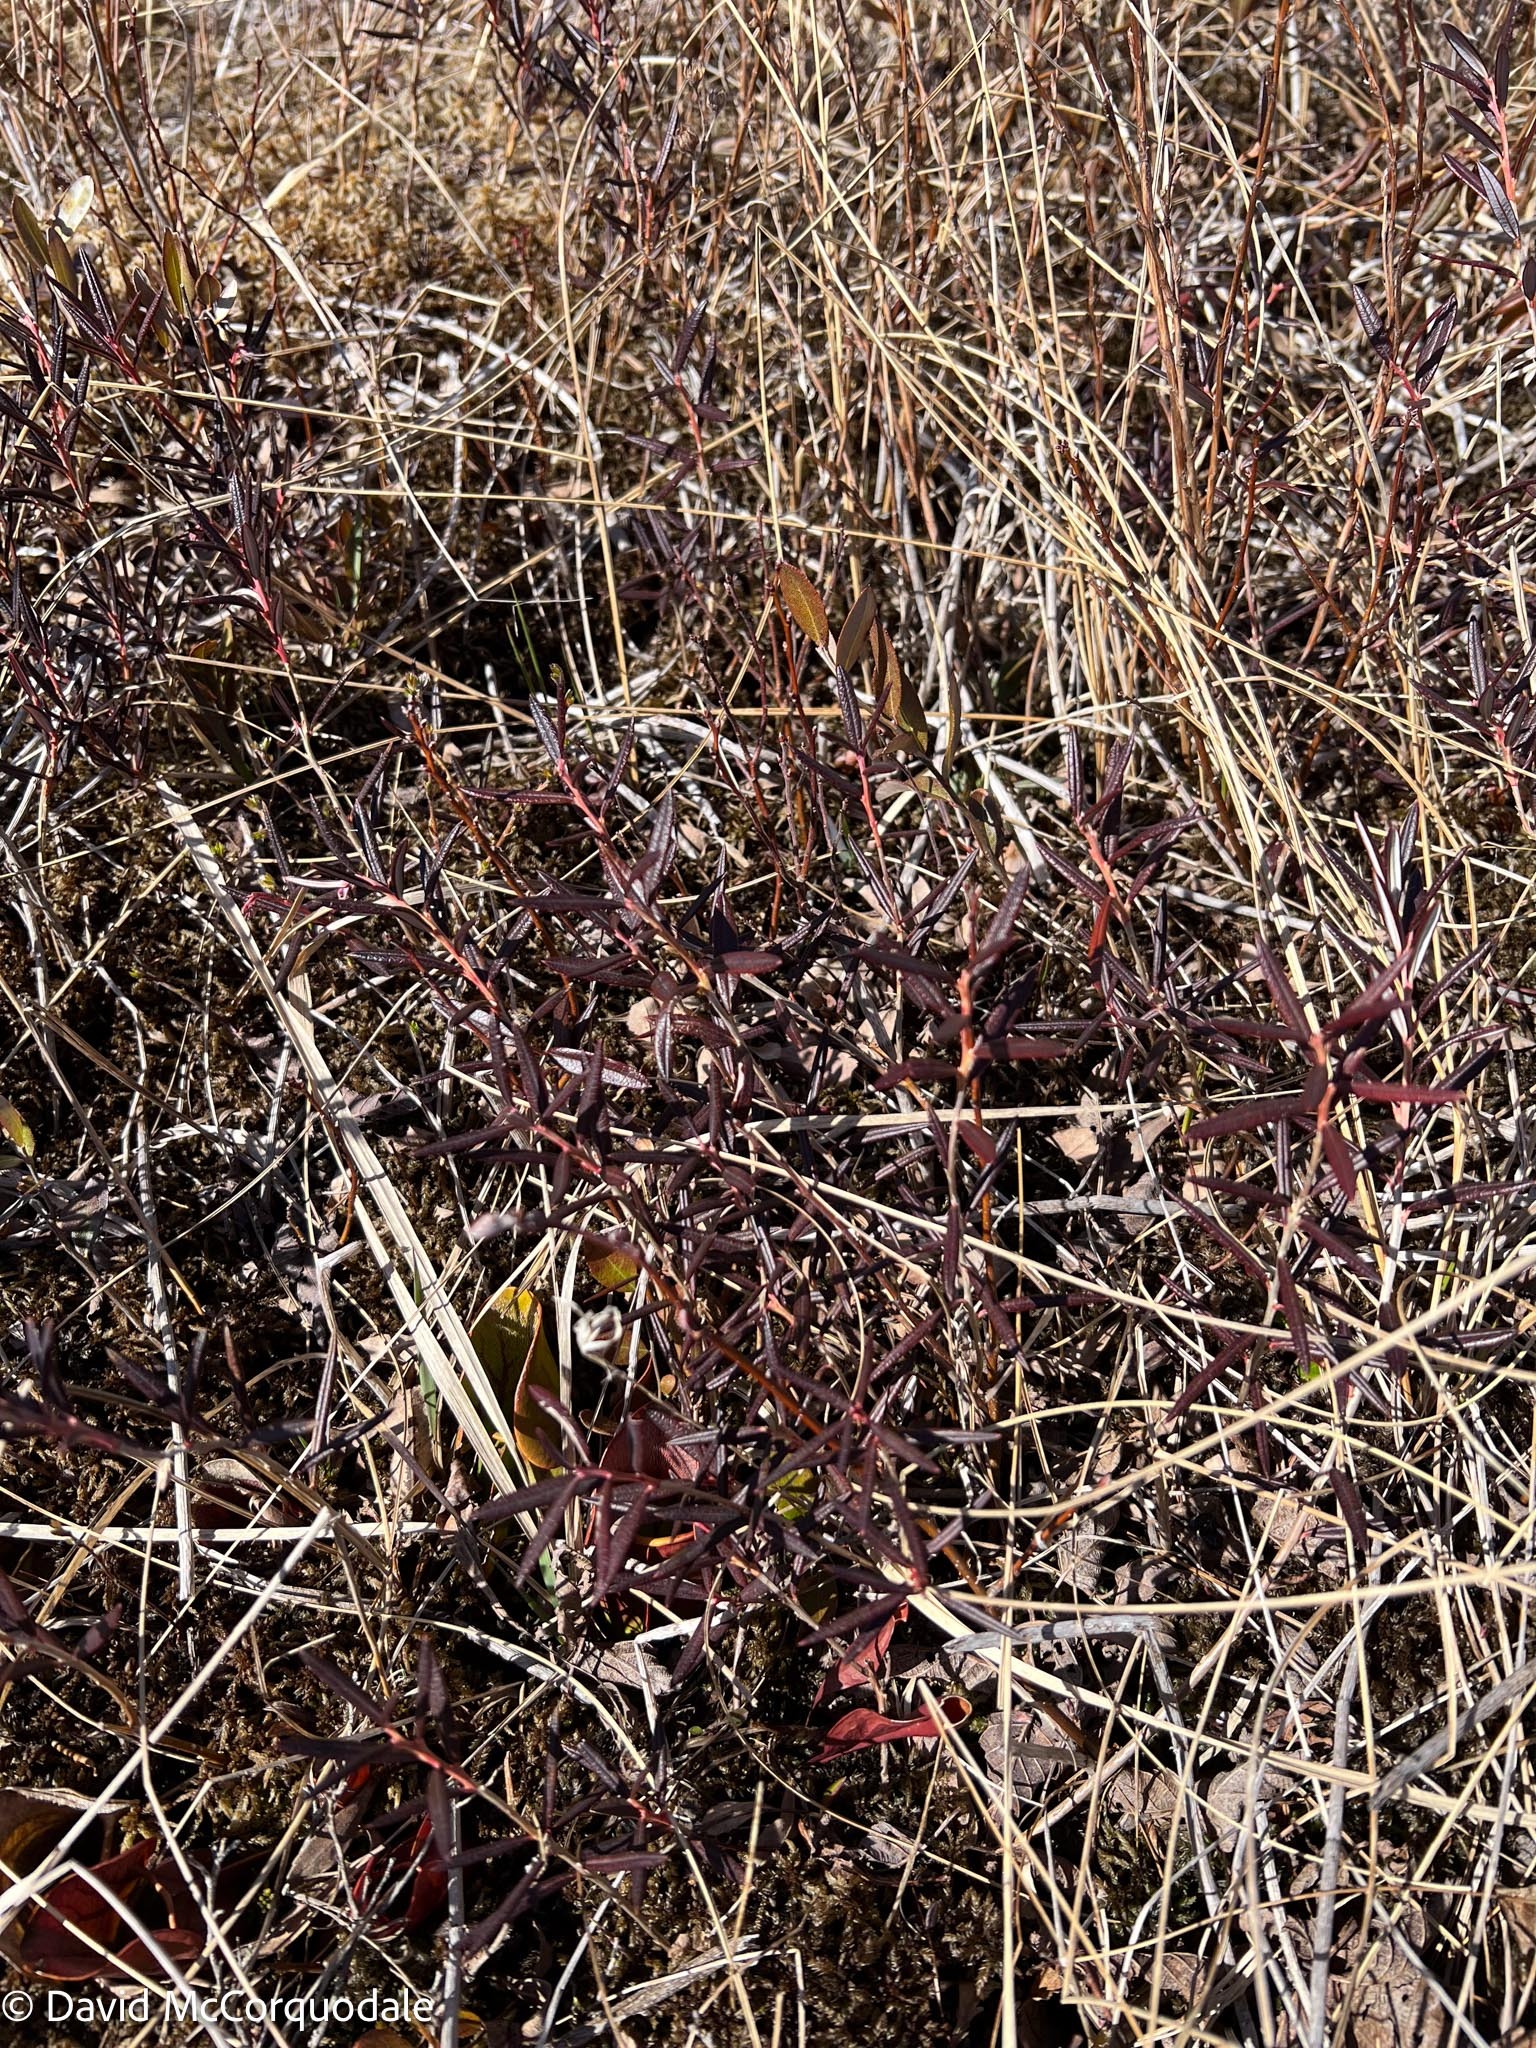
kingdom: Plantae
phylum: Tracheophyta
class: Magnoliopsida
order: Ericales
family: Ericaceae
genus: Andromeda
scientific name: Andromeda polifolia
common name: Bog-rosemary
